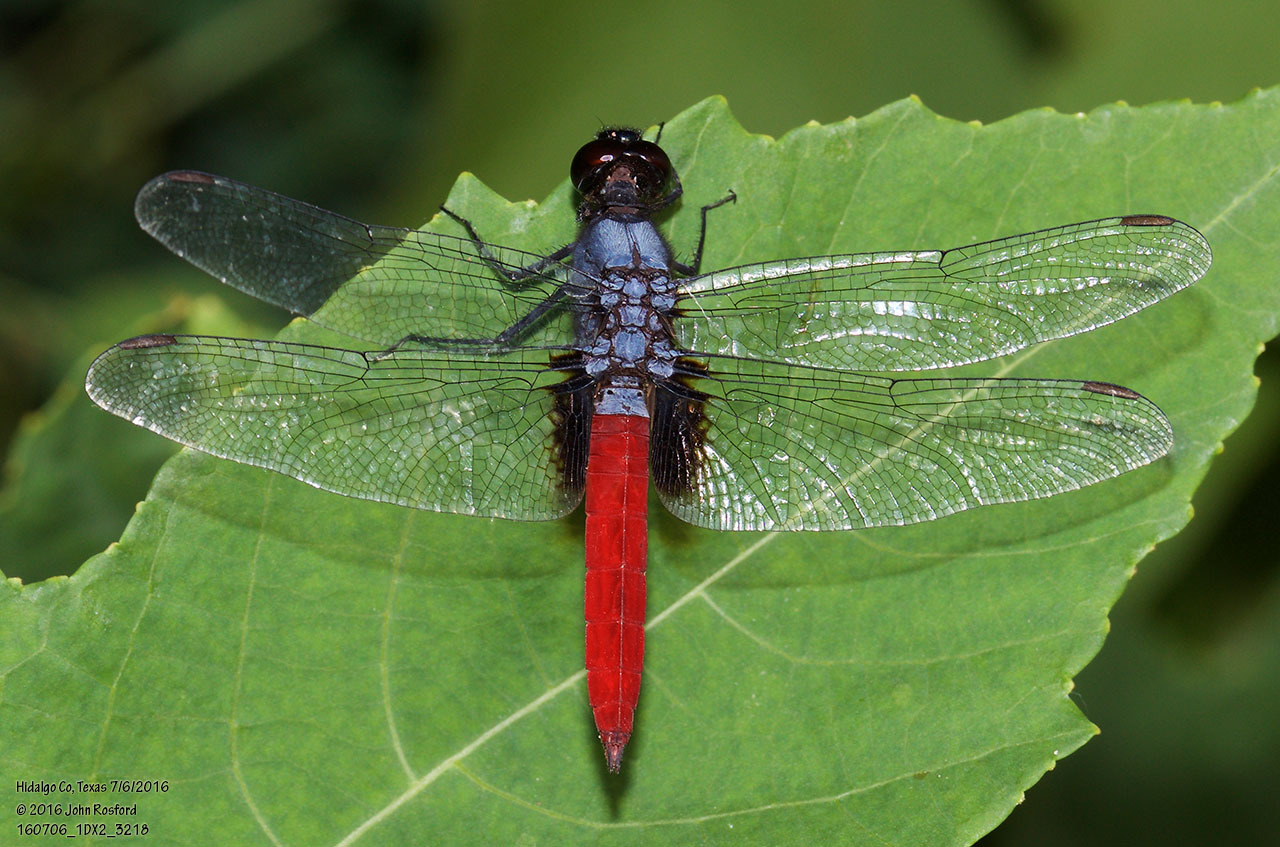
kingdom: Animalia
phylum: Arthropoda
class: Insecta
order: Odonata
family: Libellulidae
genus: Planiplax
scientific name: Planiplax sanguiniventris
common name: Mexican scarlet-tail
